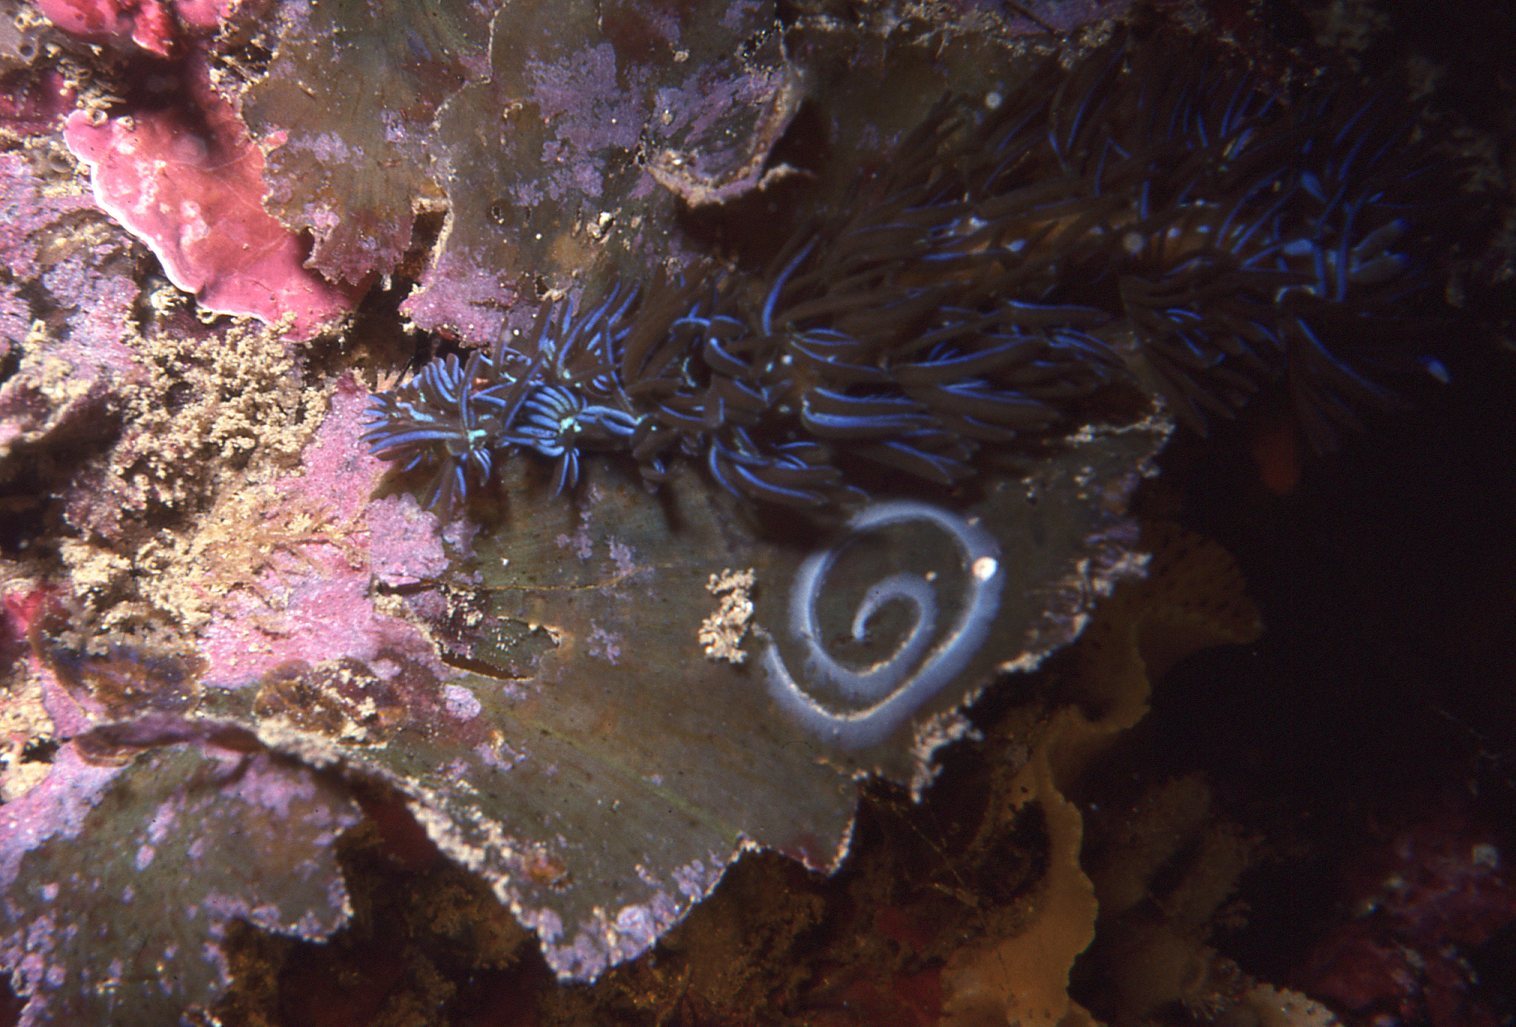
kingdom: Animalia
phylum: Mollusca
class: Gastropoda
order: Nudibranchia
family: Facelinidae
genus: Pteraeolidia
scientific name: Pteraeolidia ianthina
